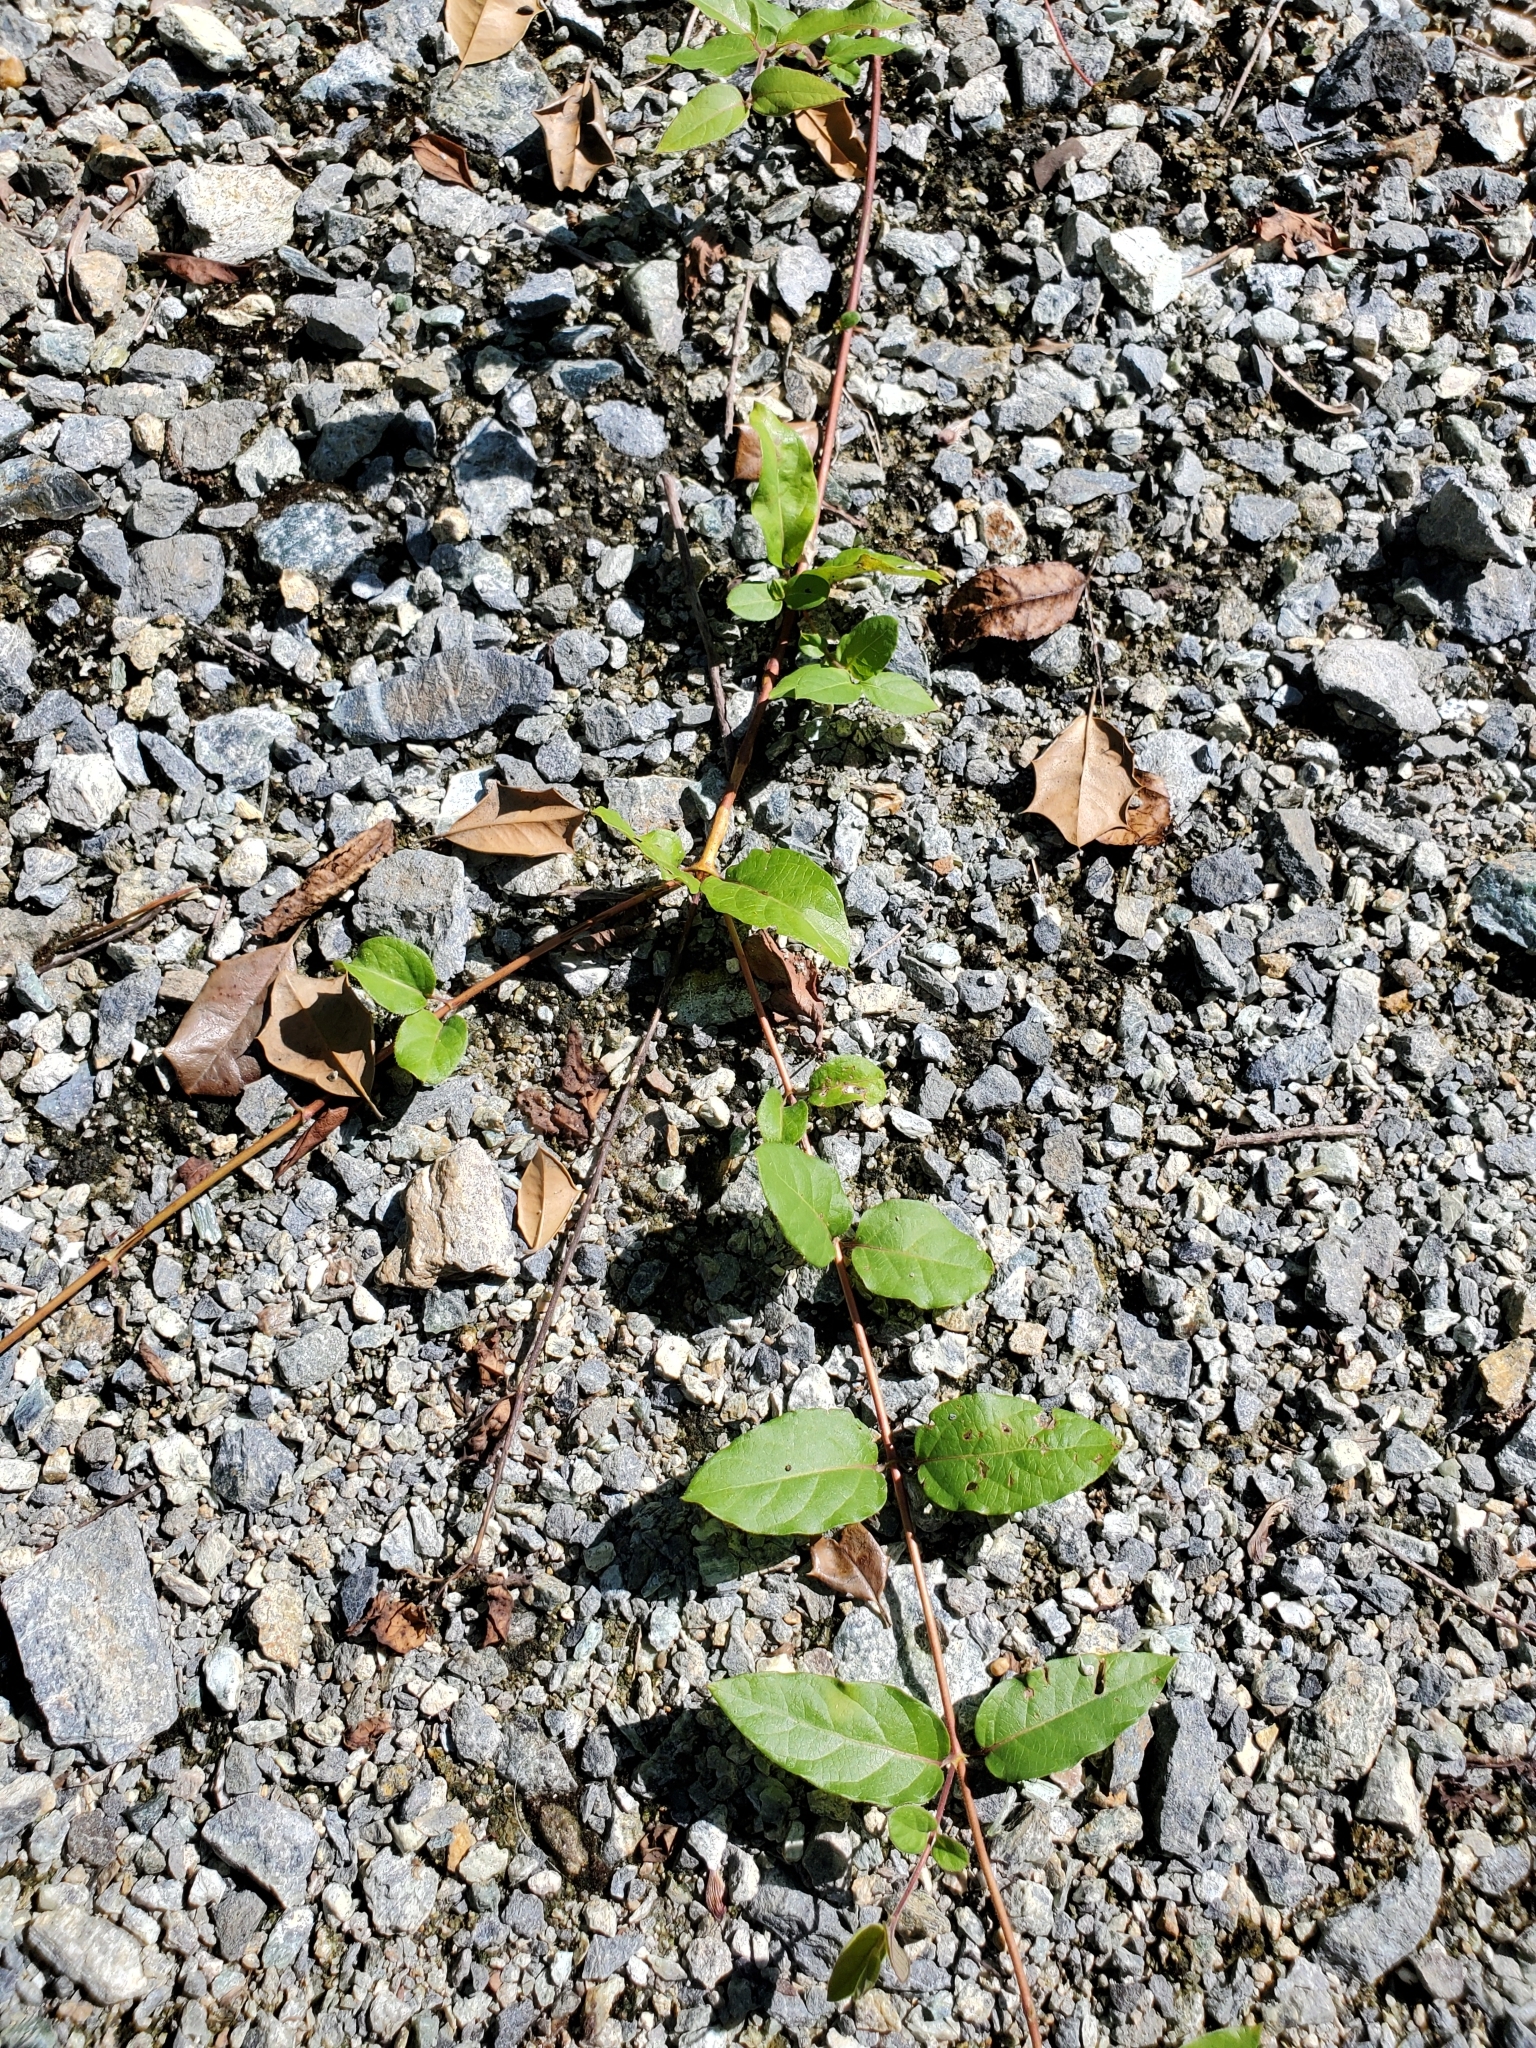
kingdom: Plantae
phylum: Tracheophyta
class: Magnoliopsida
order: Dipsacales
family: Caprifoliaceae
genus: Lonicera
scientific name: Lonicera japonica
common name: Japanese honeysuckle
